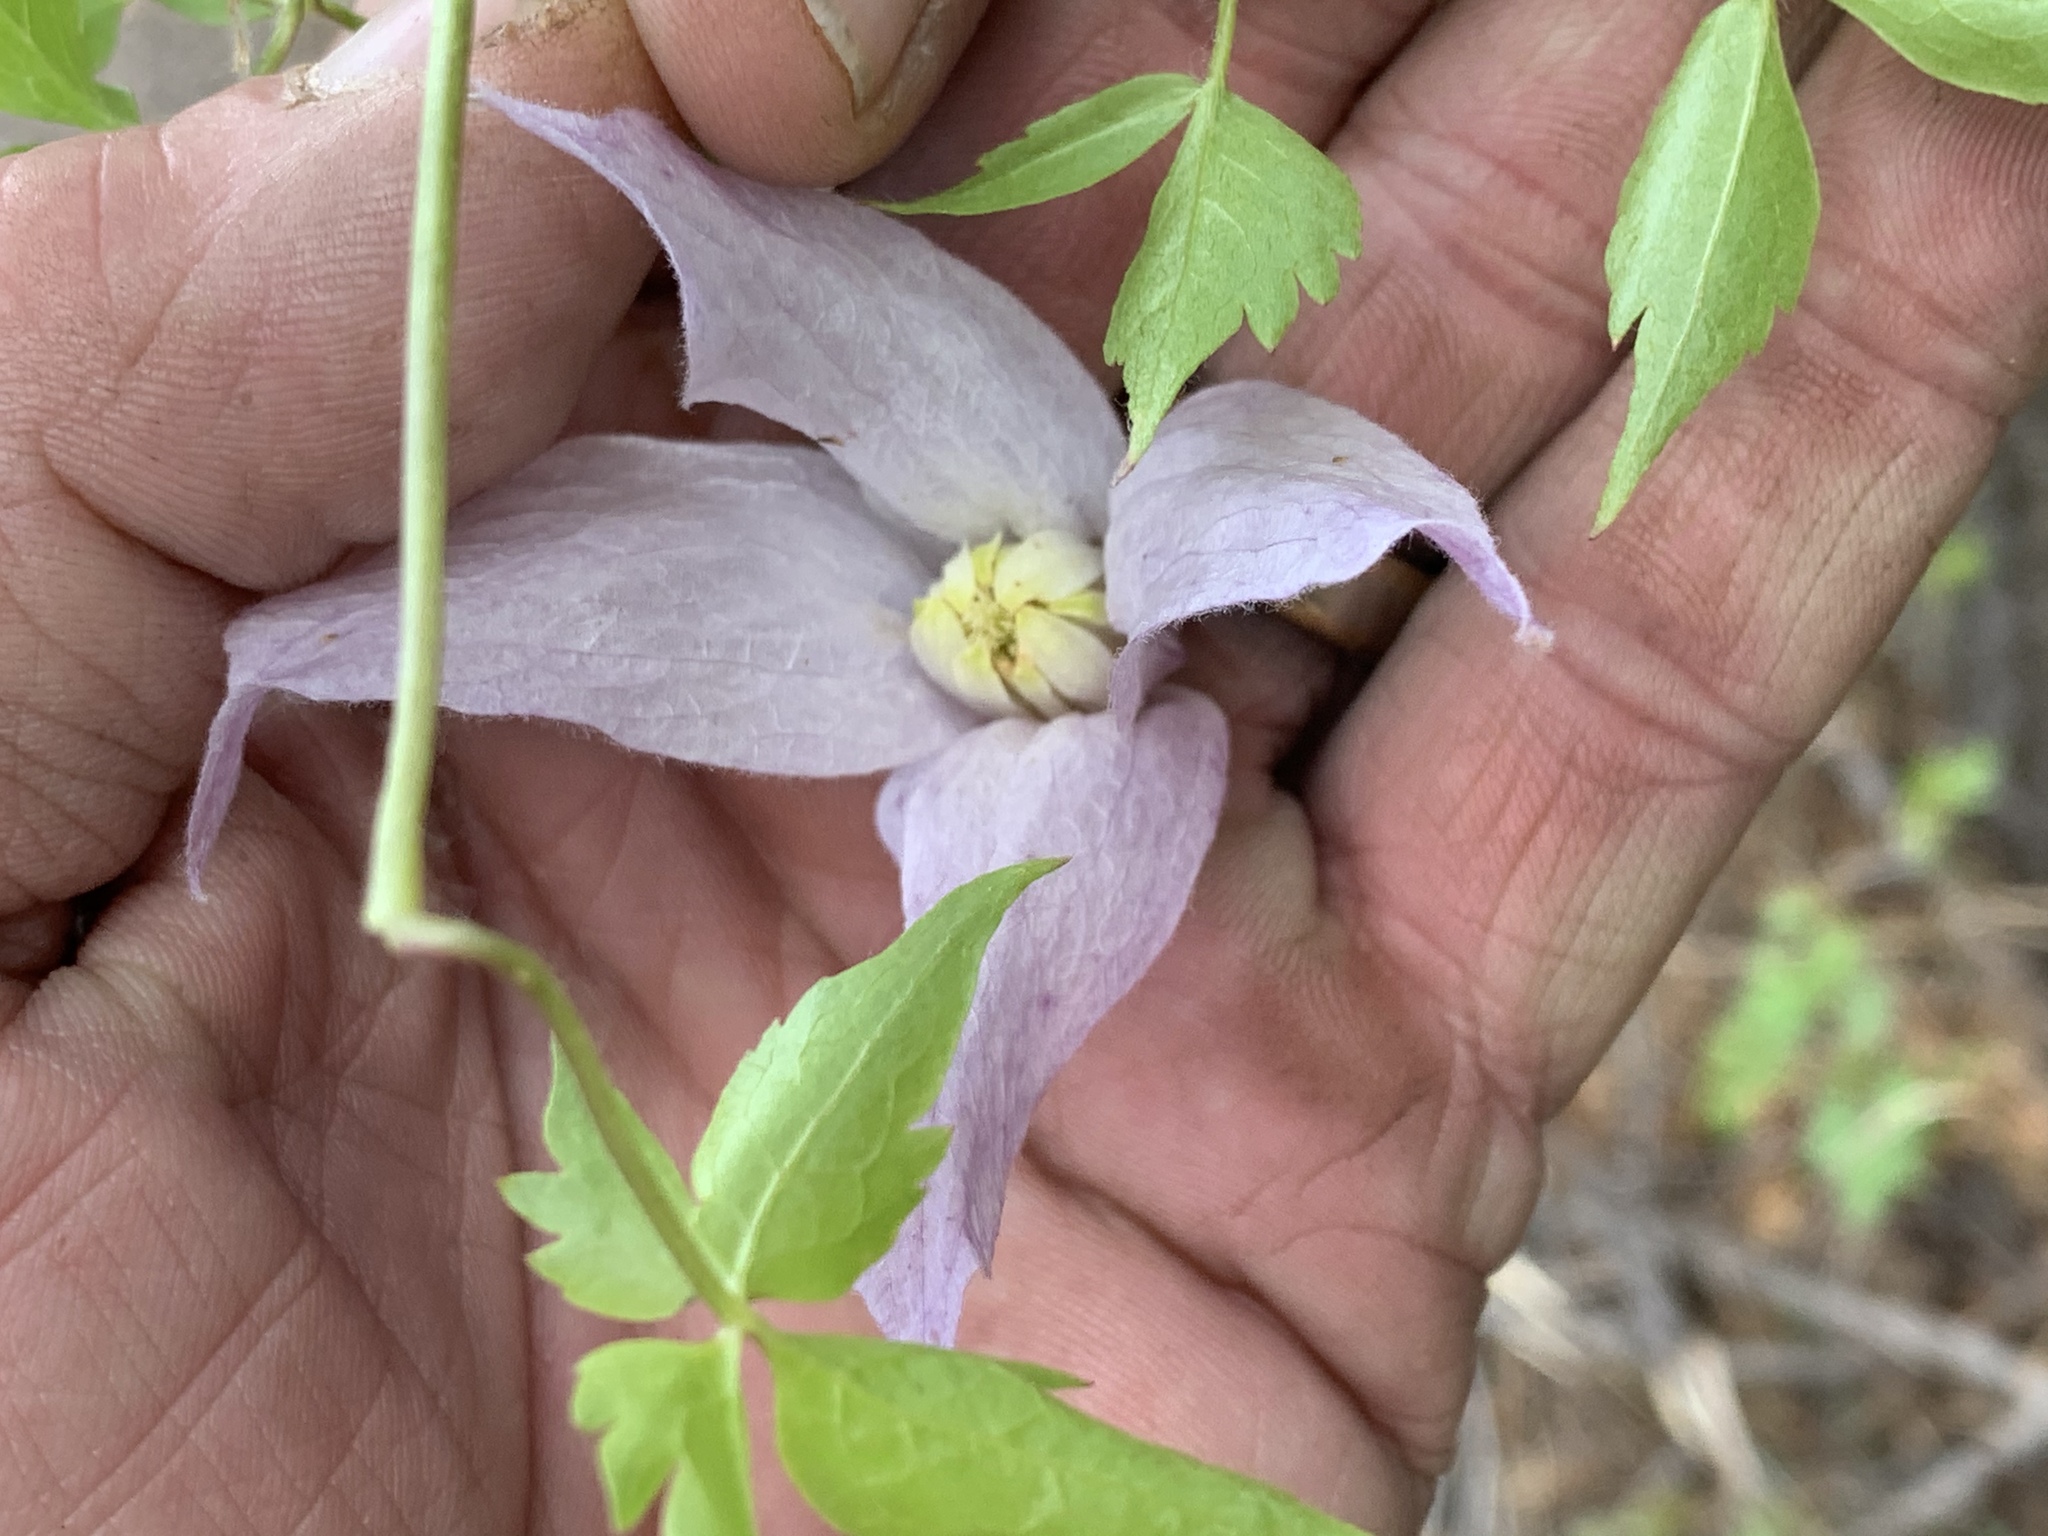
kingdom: Plantae
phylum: Tracheophyta
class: Magnoliopsida
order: Ranunculales
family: Ranunculaceae
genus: Clematis
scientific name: Clematis columbiana
